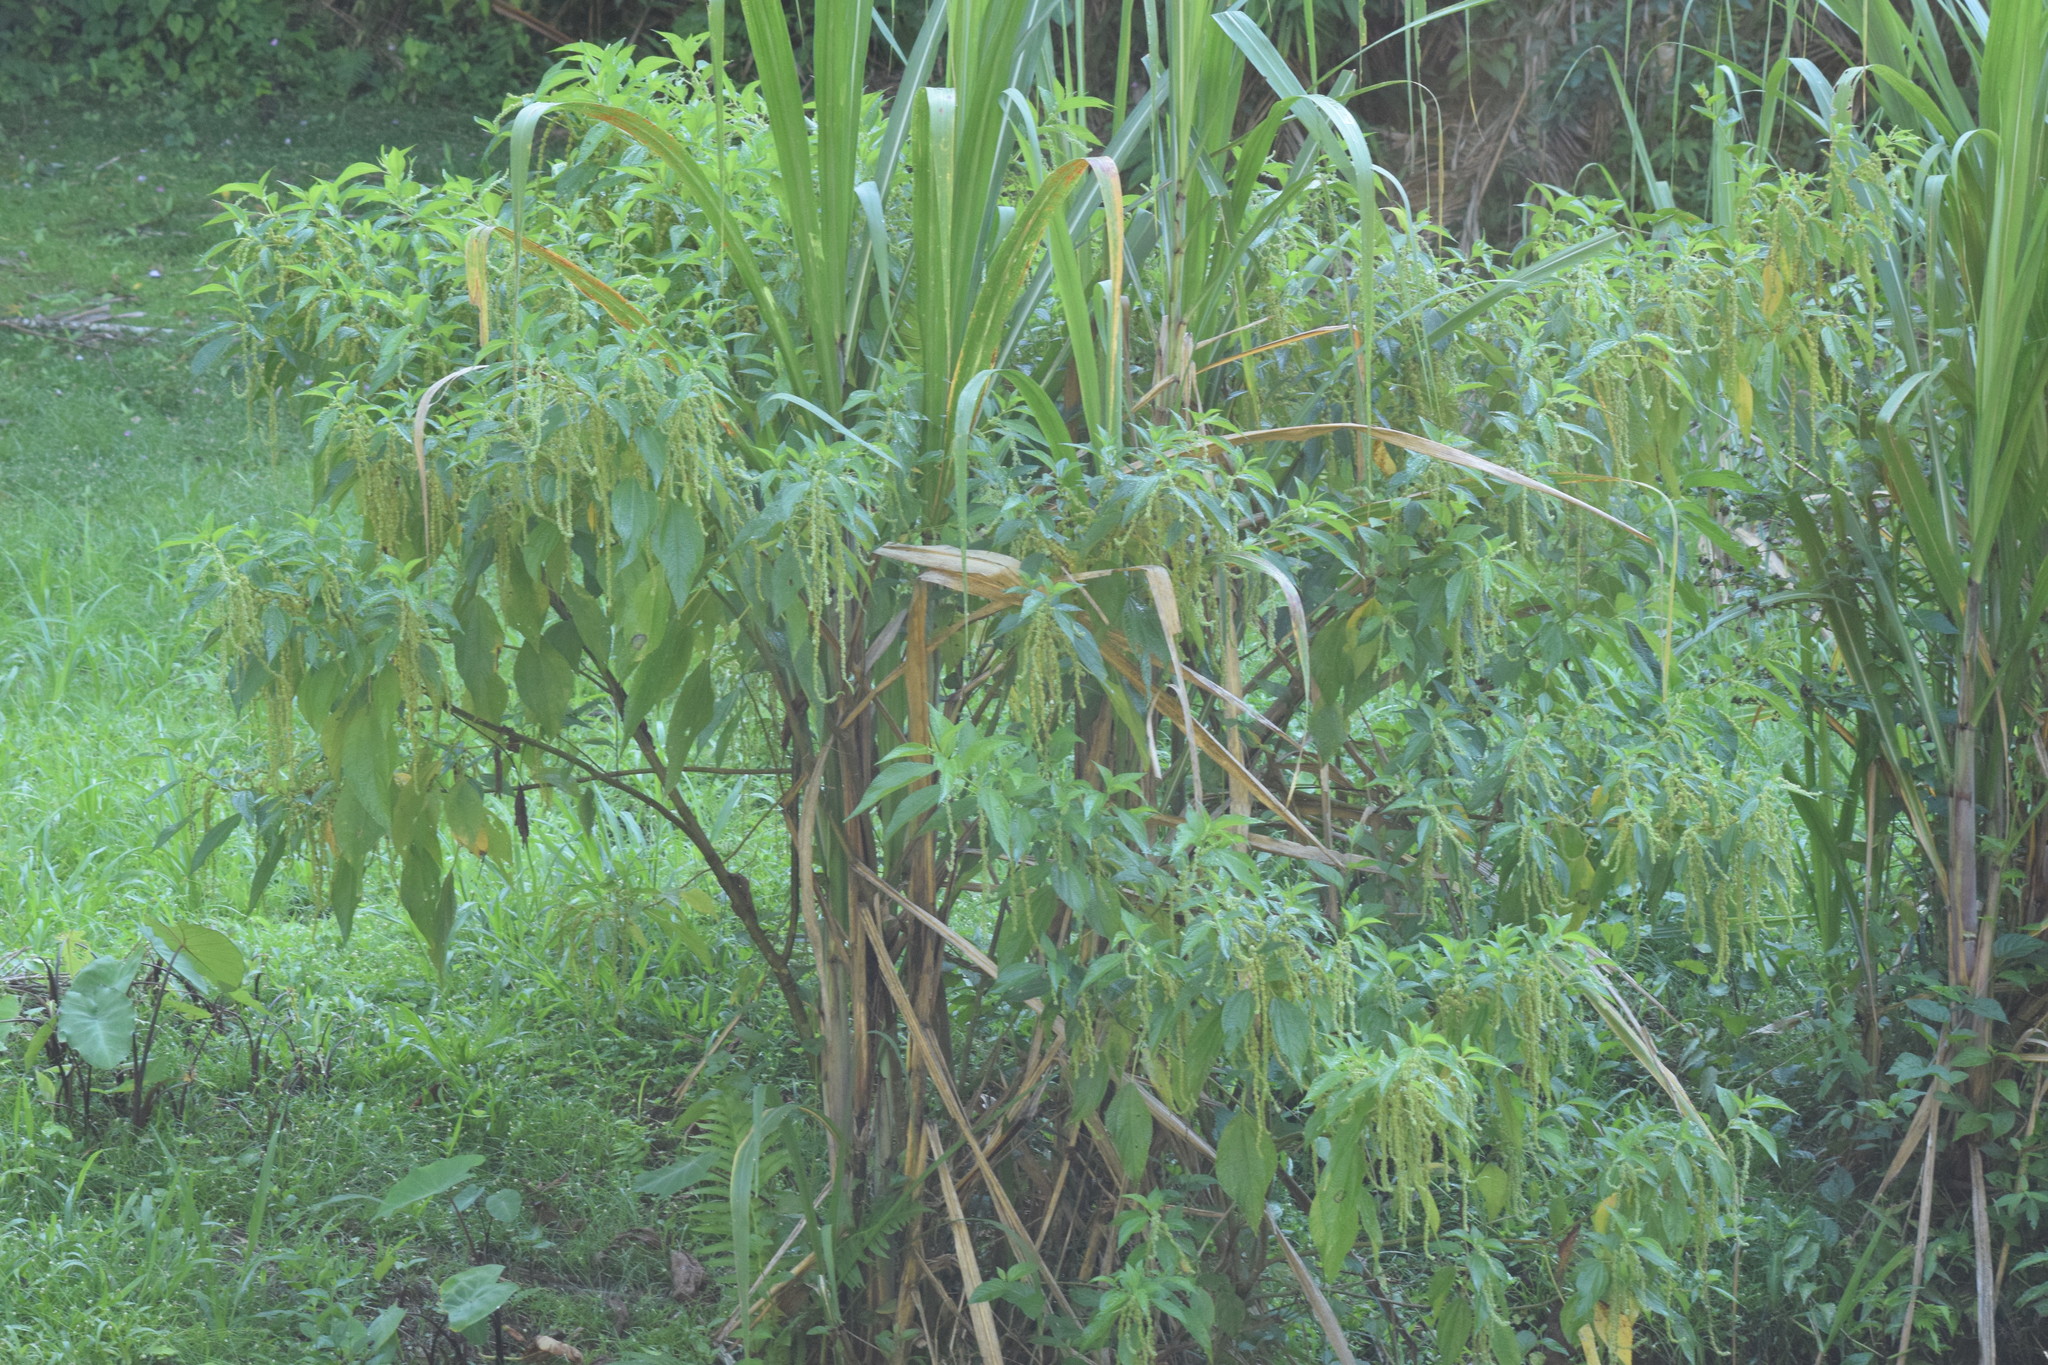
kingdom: Plantae
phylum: Tracheophyta
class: Magnoliopsida
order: Rosales
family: Urticaceae
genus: Boehmeria
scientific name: Boehmeria caudata
